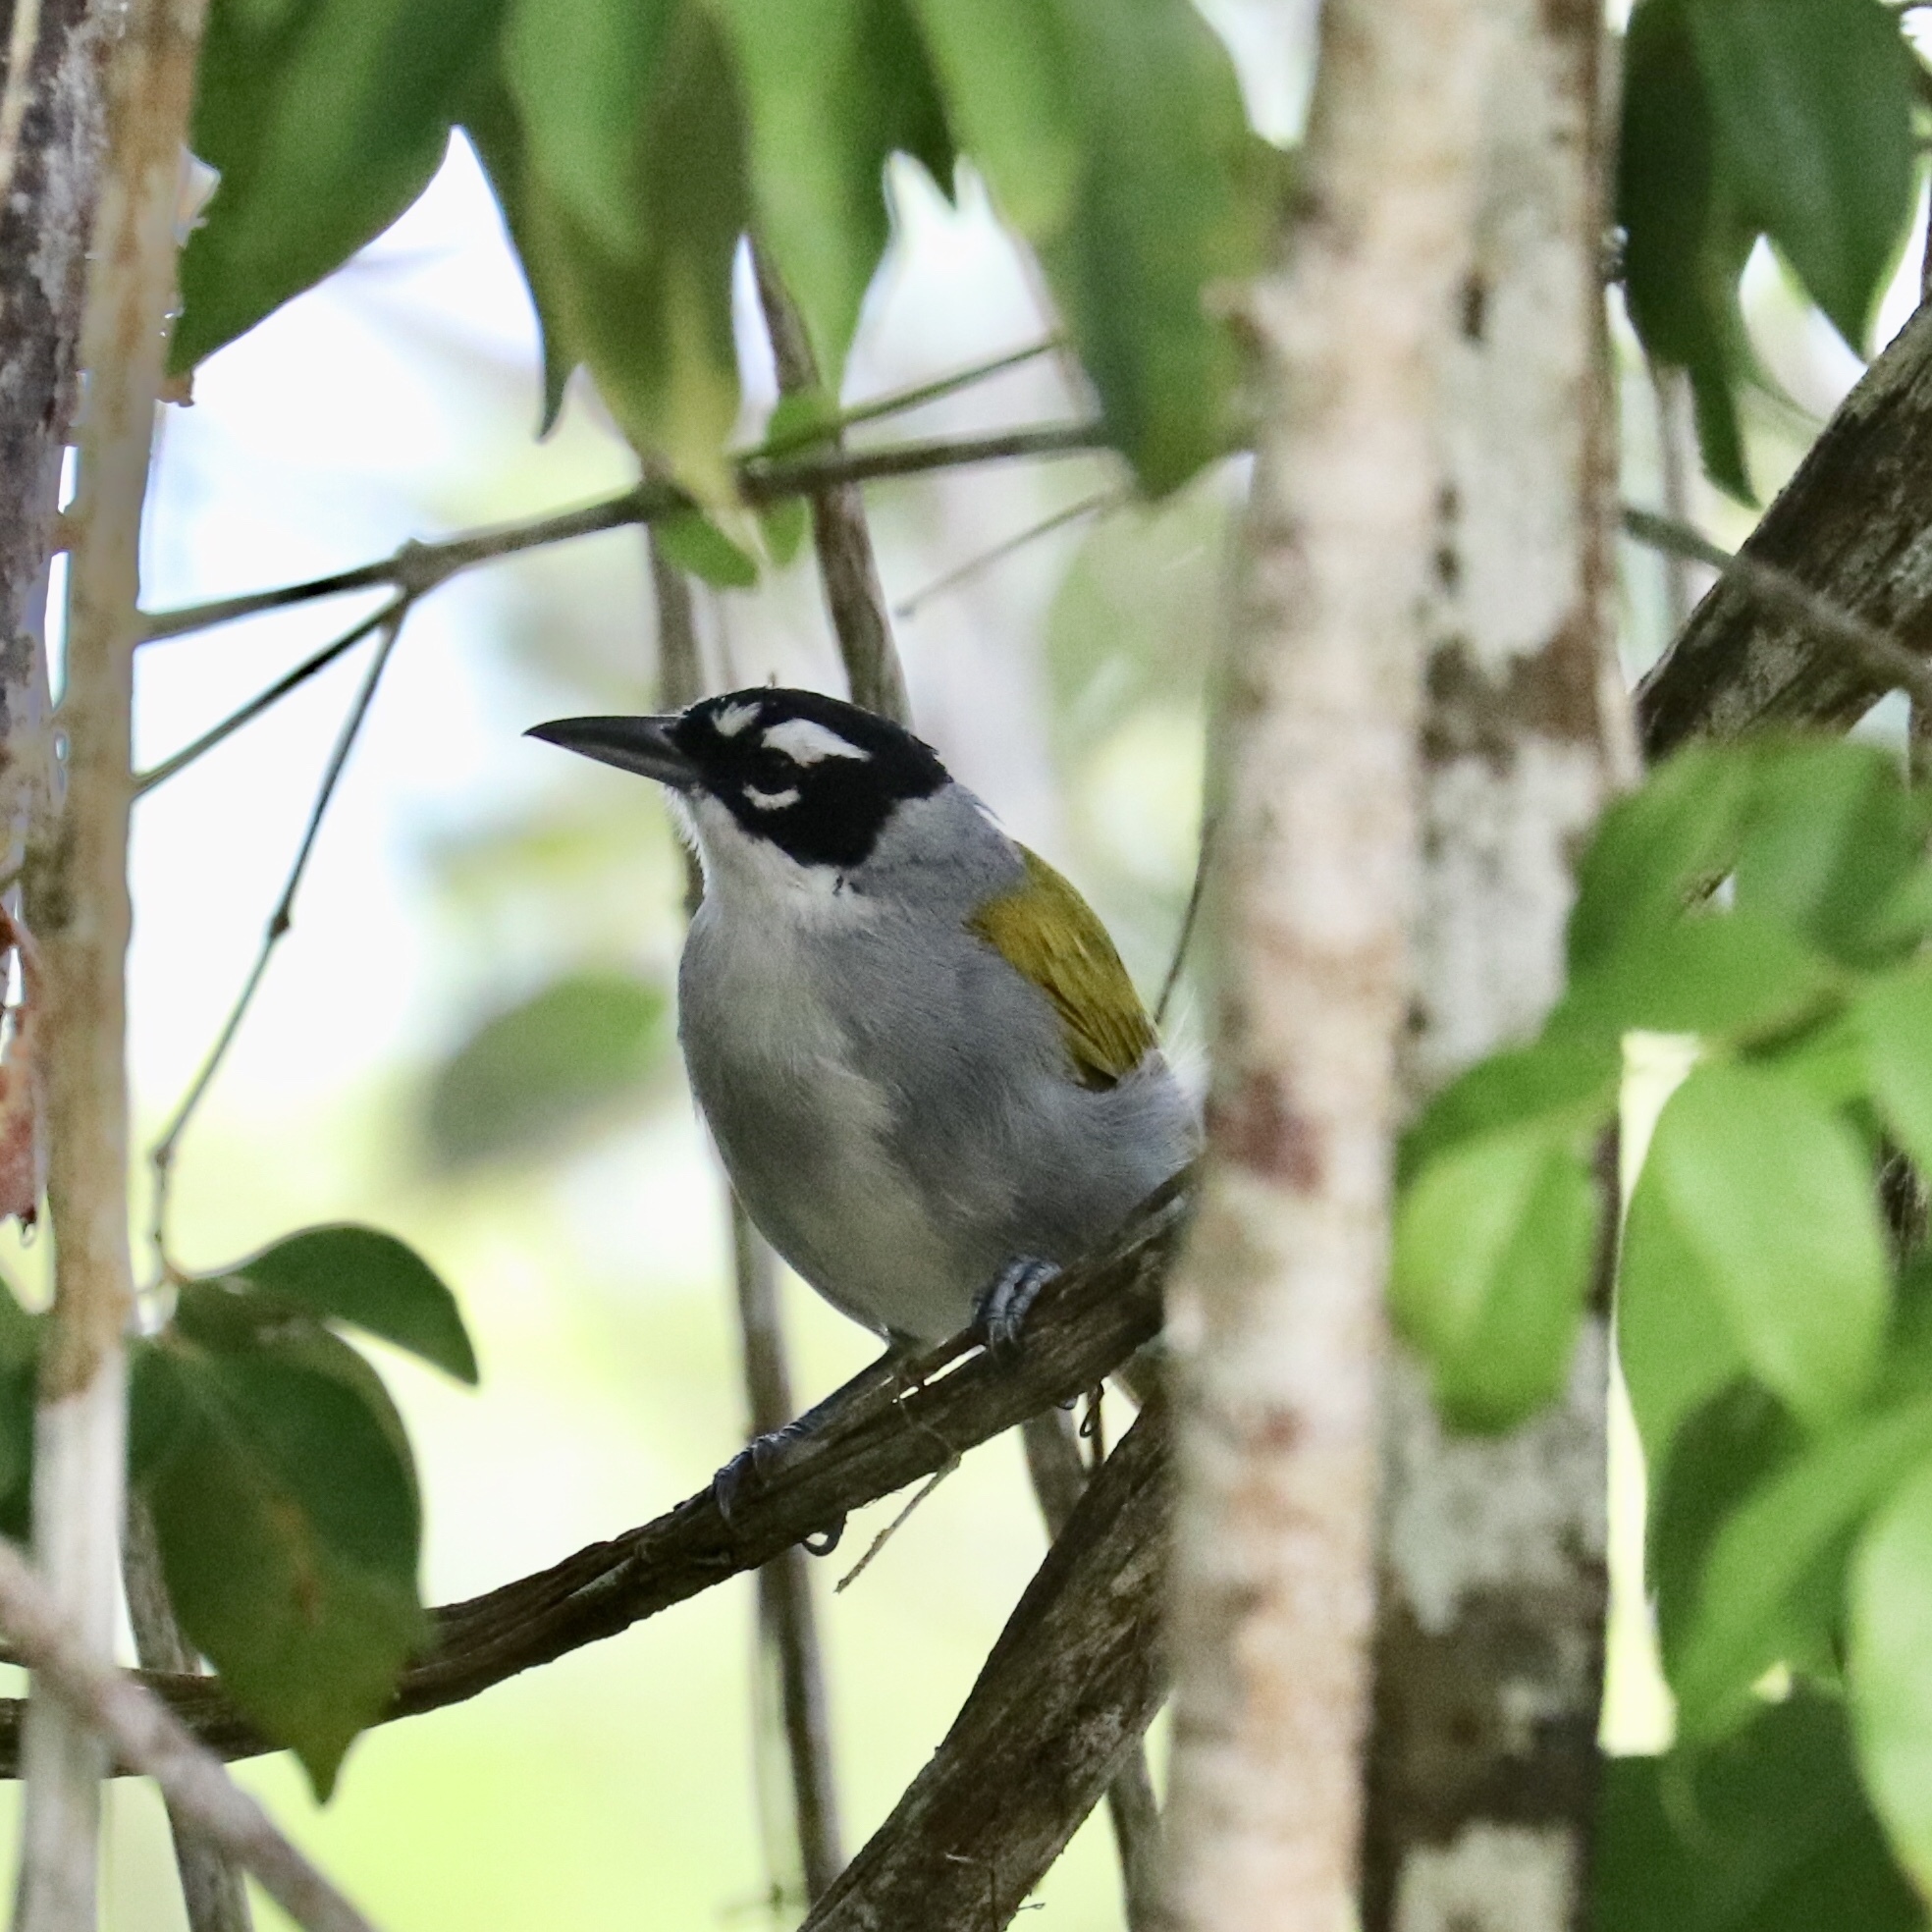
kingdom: Animalia
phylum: Chordata
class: Aves
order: Passeriformes
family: Phaenicophilidae
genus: Phaenicophilus
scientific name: Phaenicophilus palmarum
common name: Black-crowned palm-tanager
